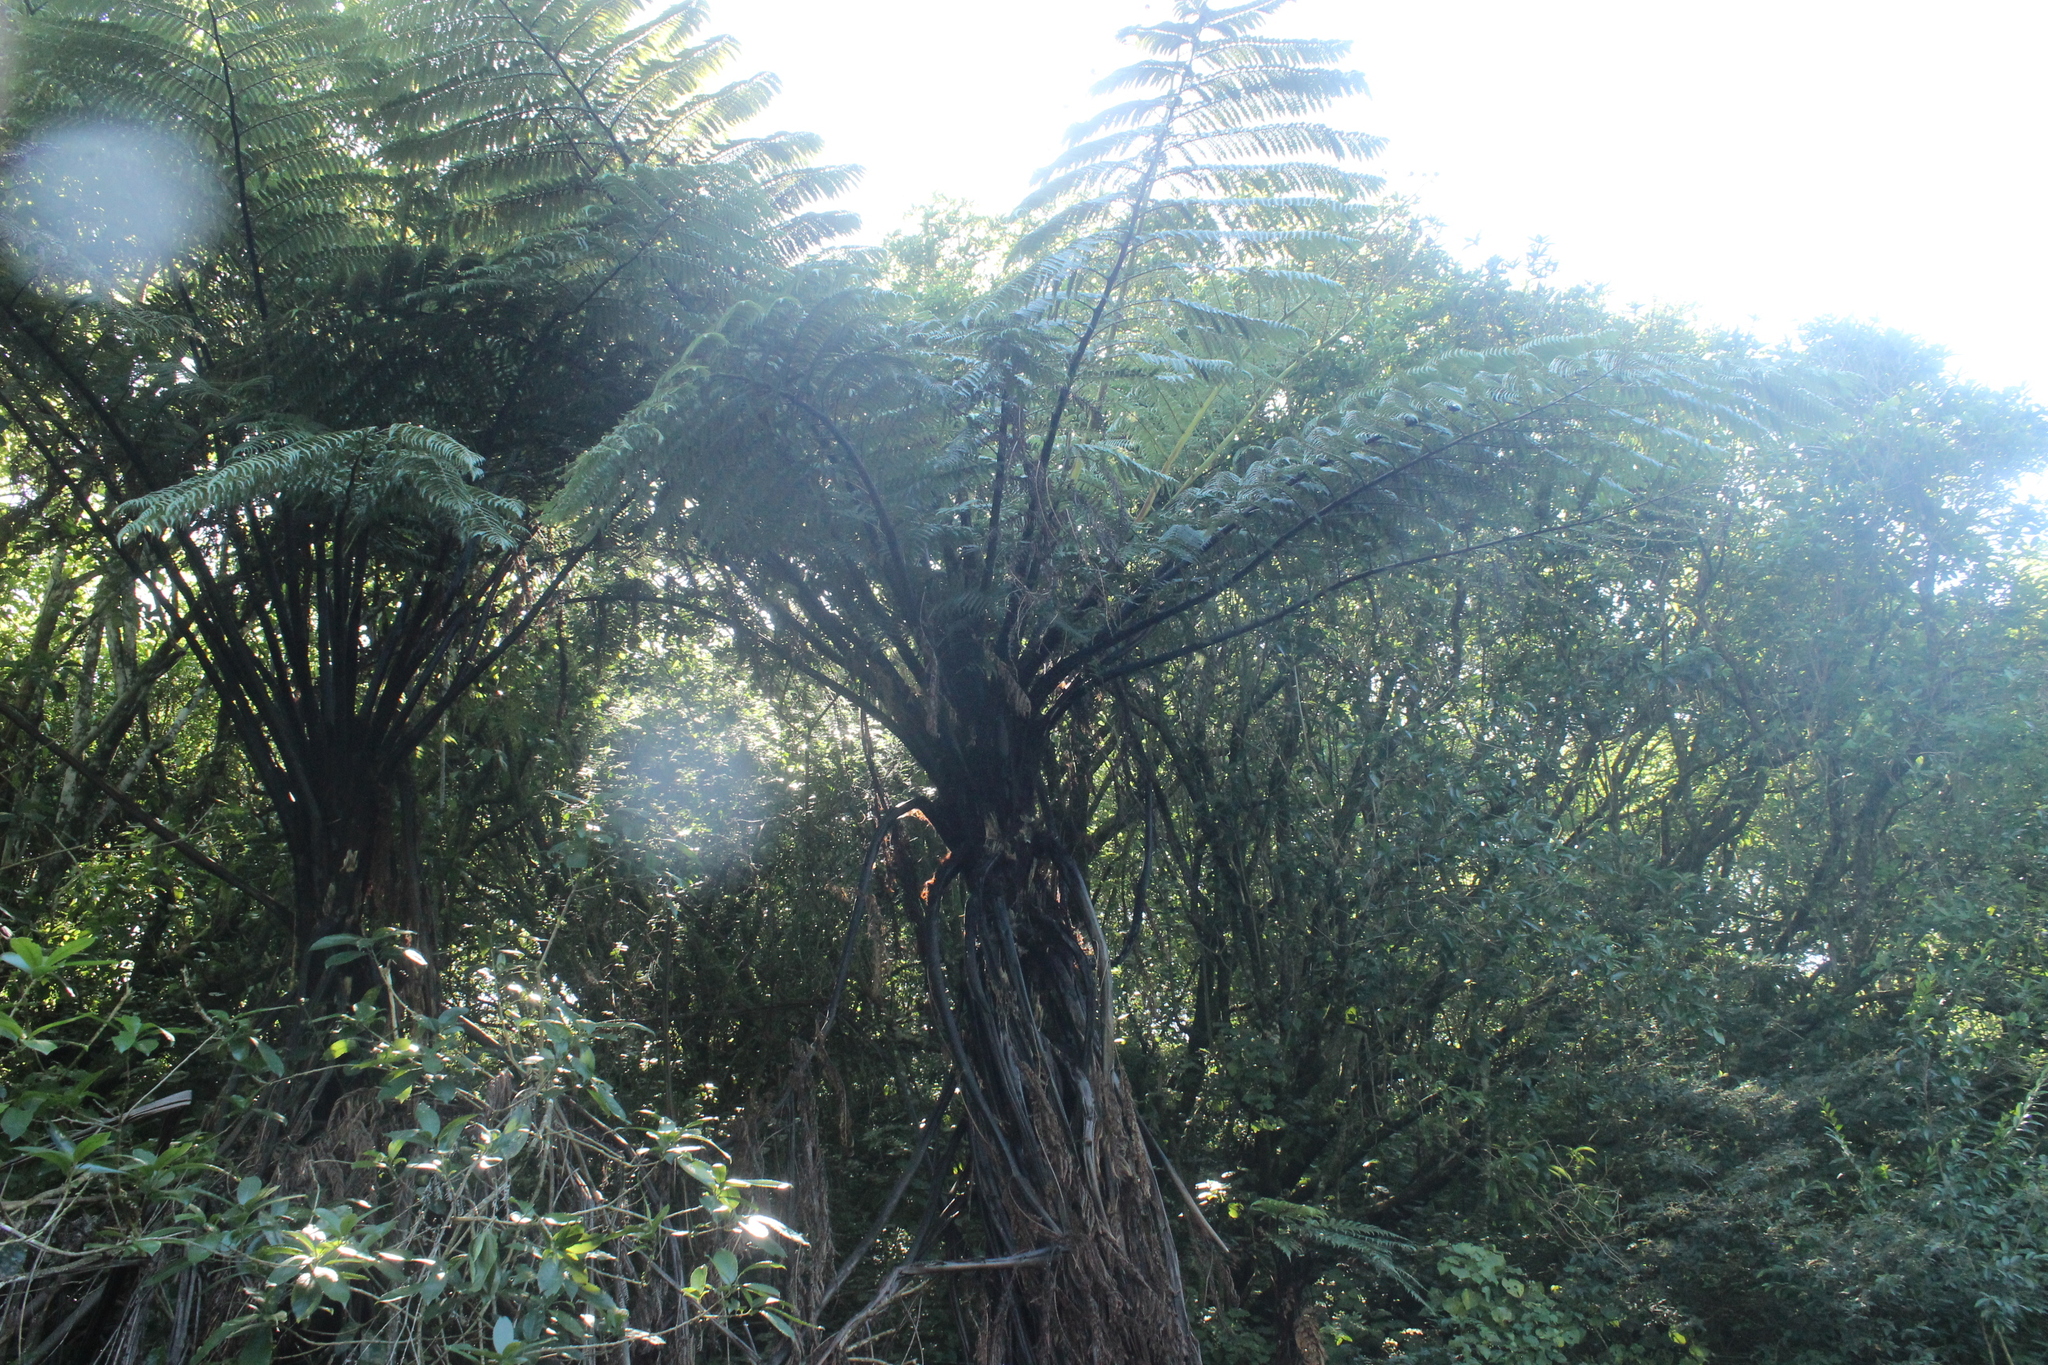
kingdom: Plantae
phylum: Tracheophyta
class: Polypodiopsida
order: Cyatheales
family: Cyatheaceae
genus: Sphaeropteris
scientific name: Sphaeropteris medullaris
